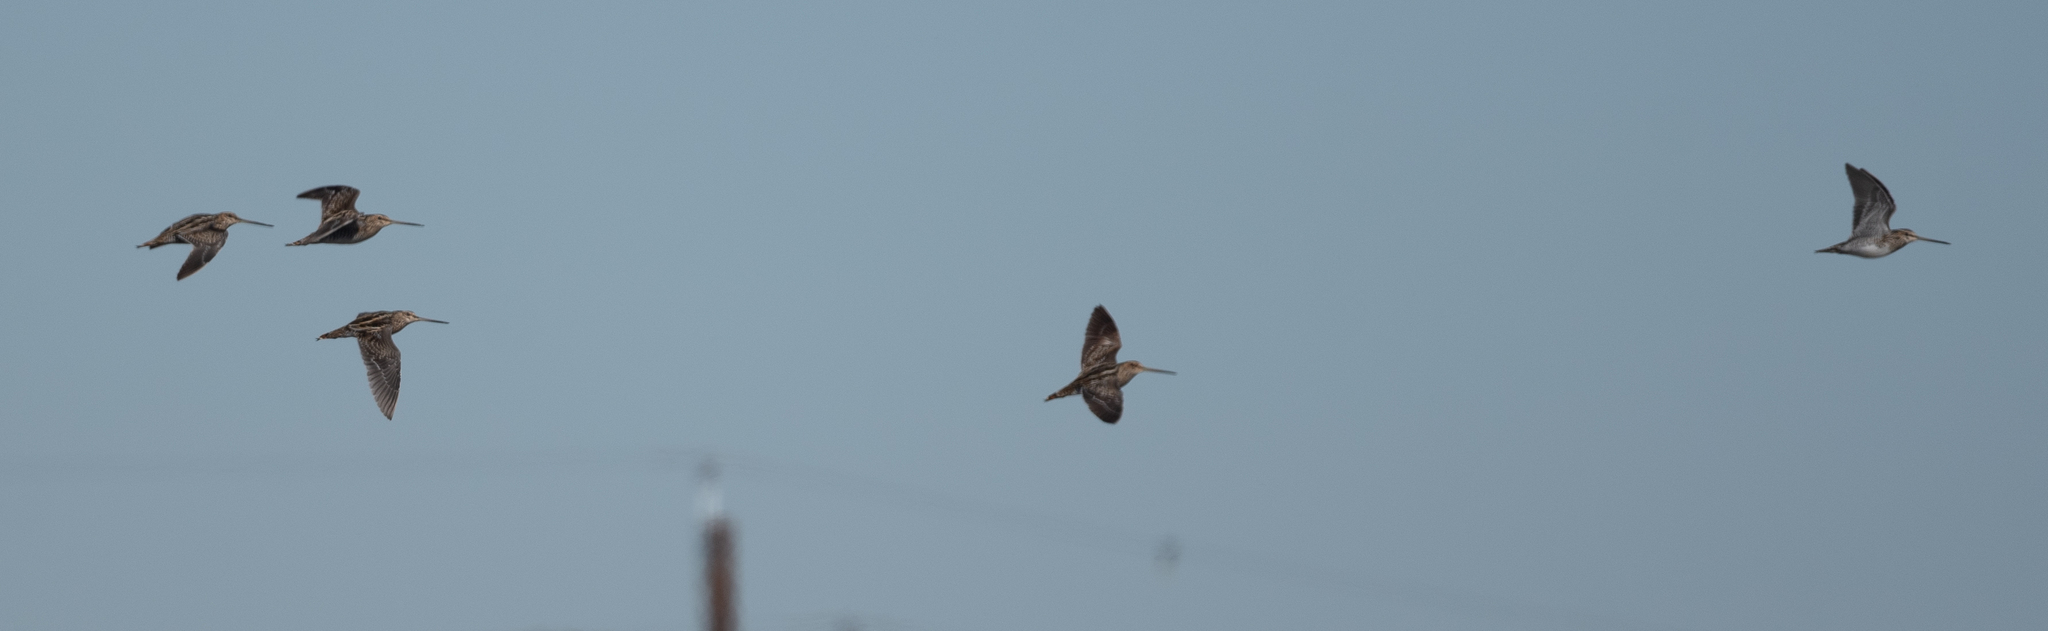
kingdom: Animalia
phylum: Chordata
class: Aves
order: Charadriiformes
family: Scolopacidae
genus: Gallinago
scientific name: Gallinago delicata
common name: Wilson's snipe
